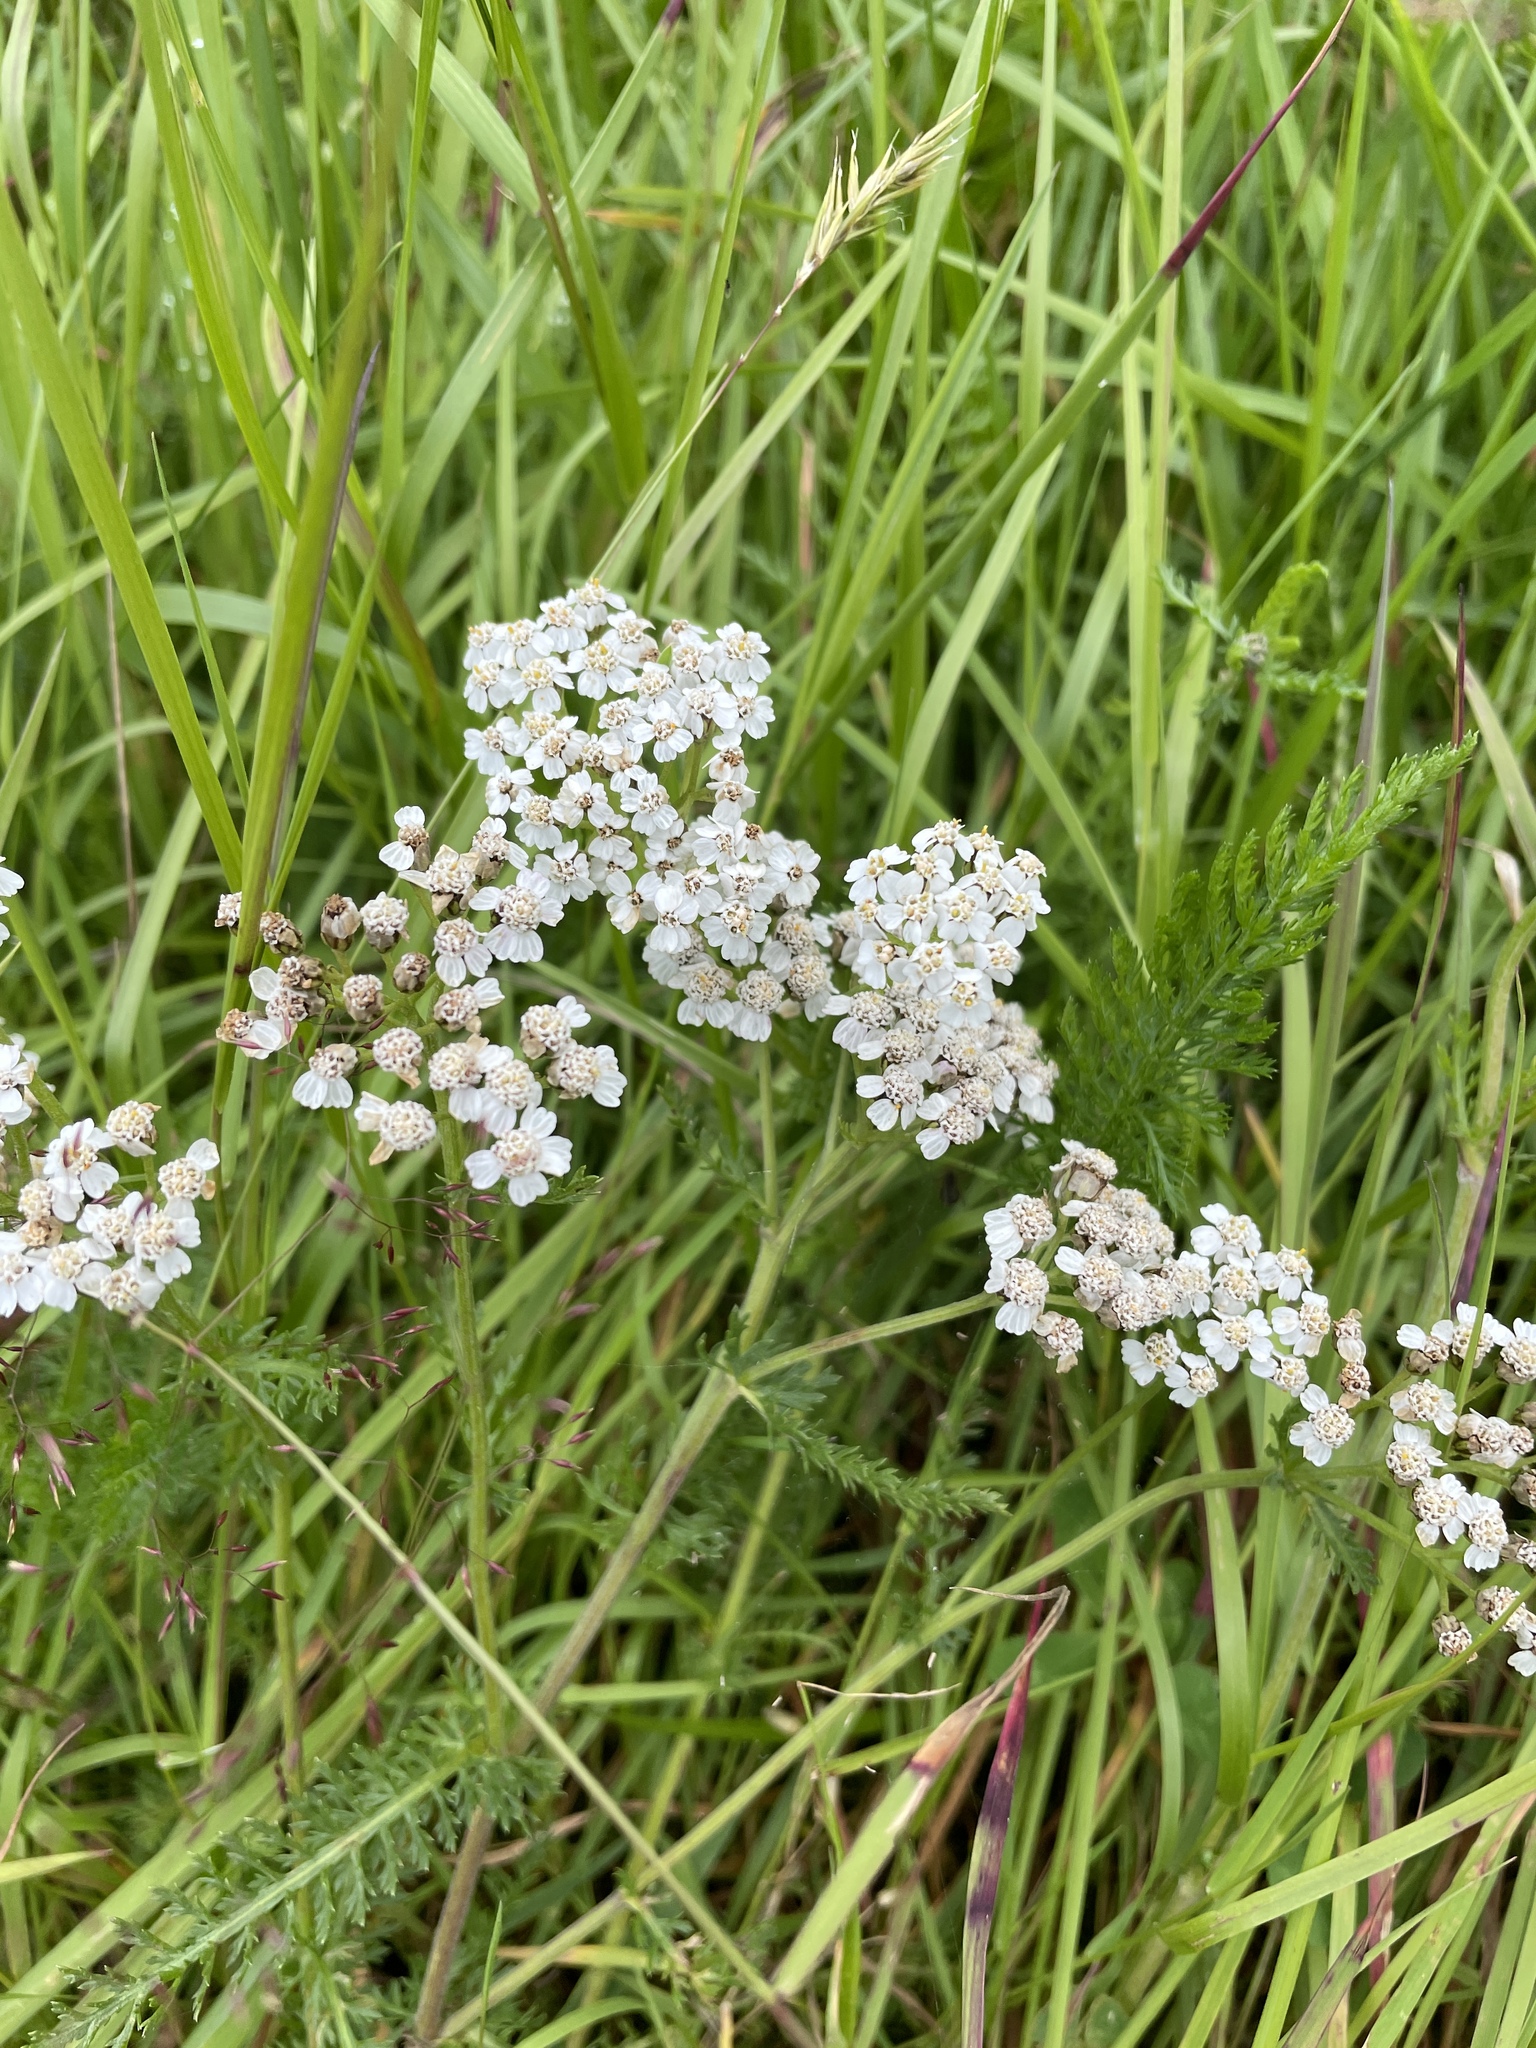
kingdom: Plantae
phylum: Tracheophyta
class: Magnoliopsida
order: Asterales
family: Asteraceae
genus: Achillea
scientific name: Achillea millefolium
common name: Yarrow
